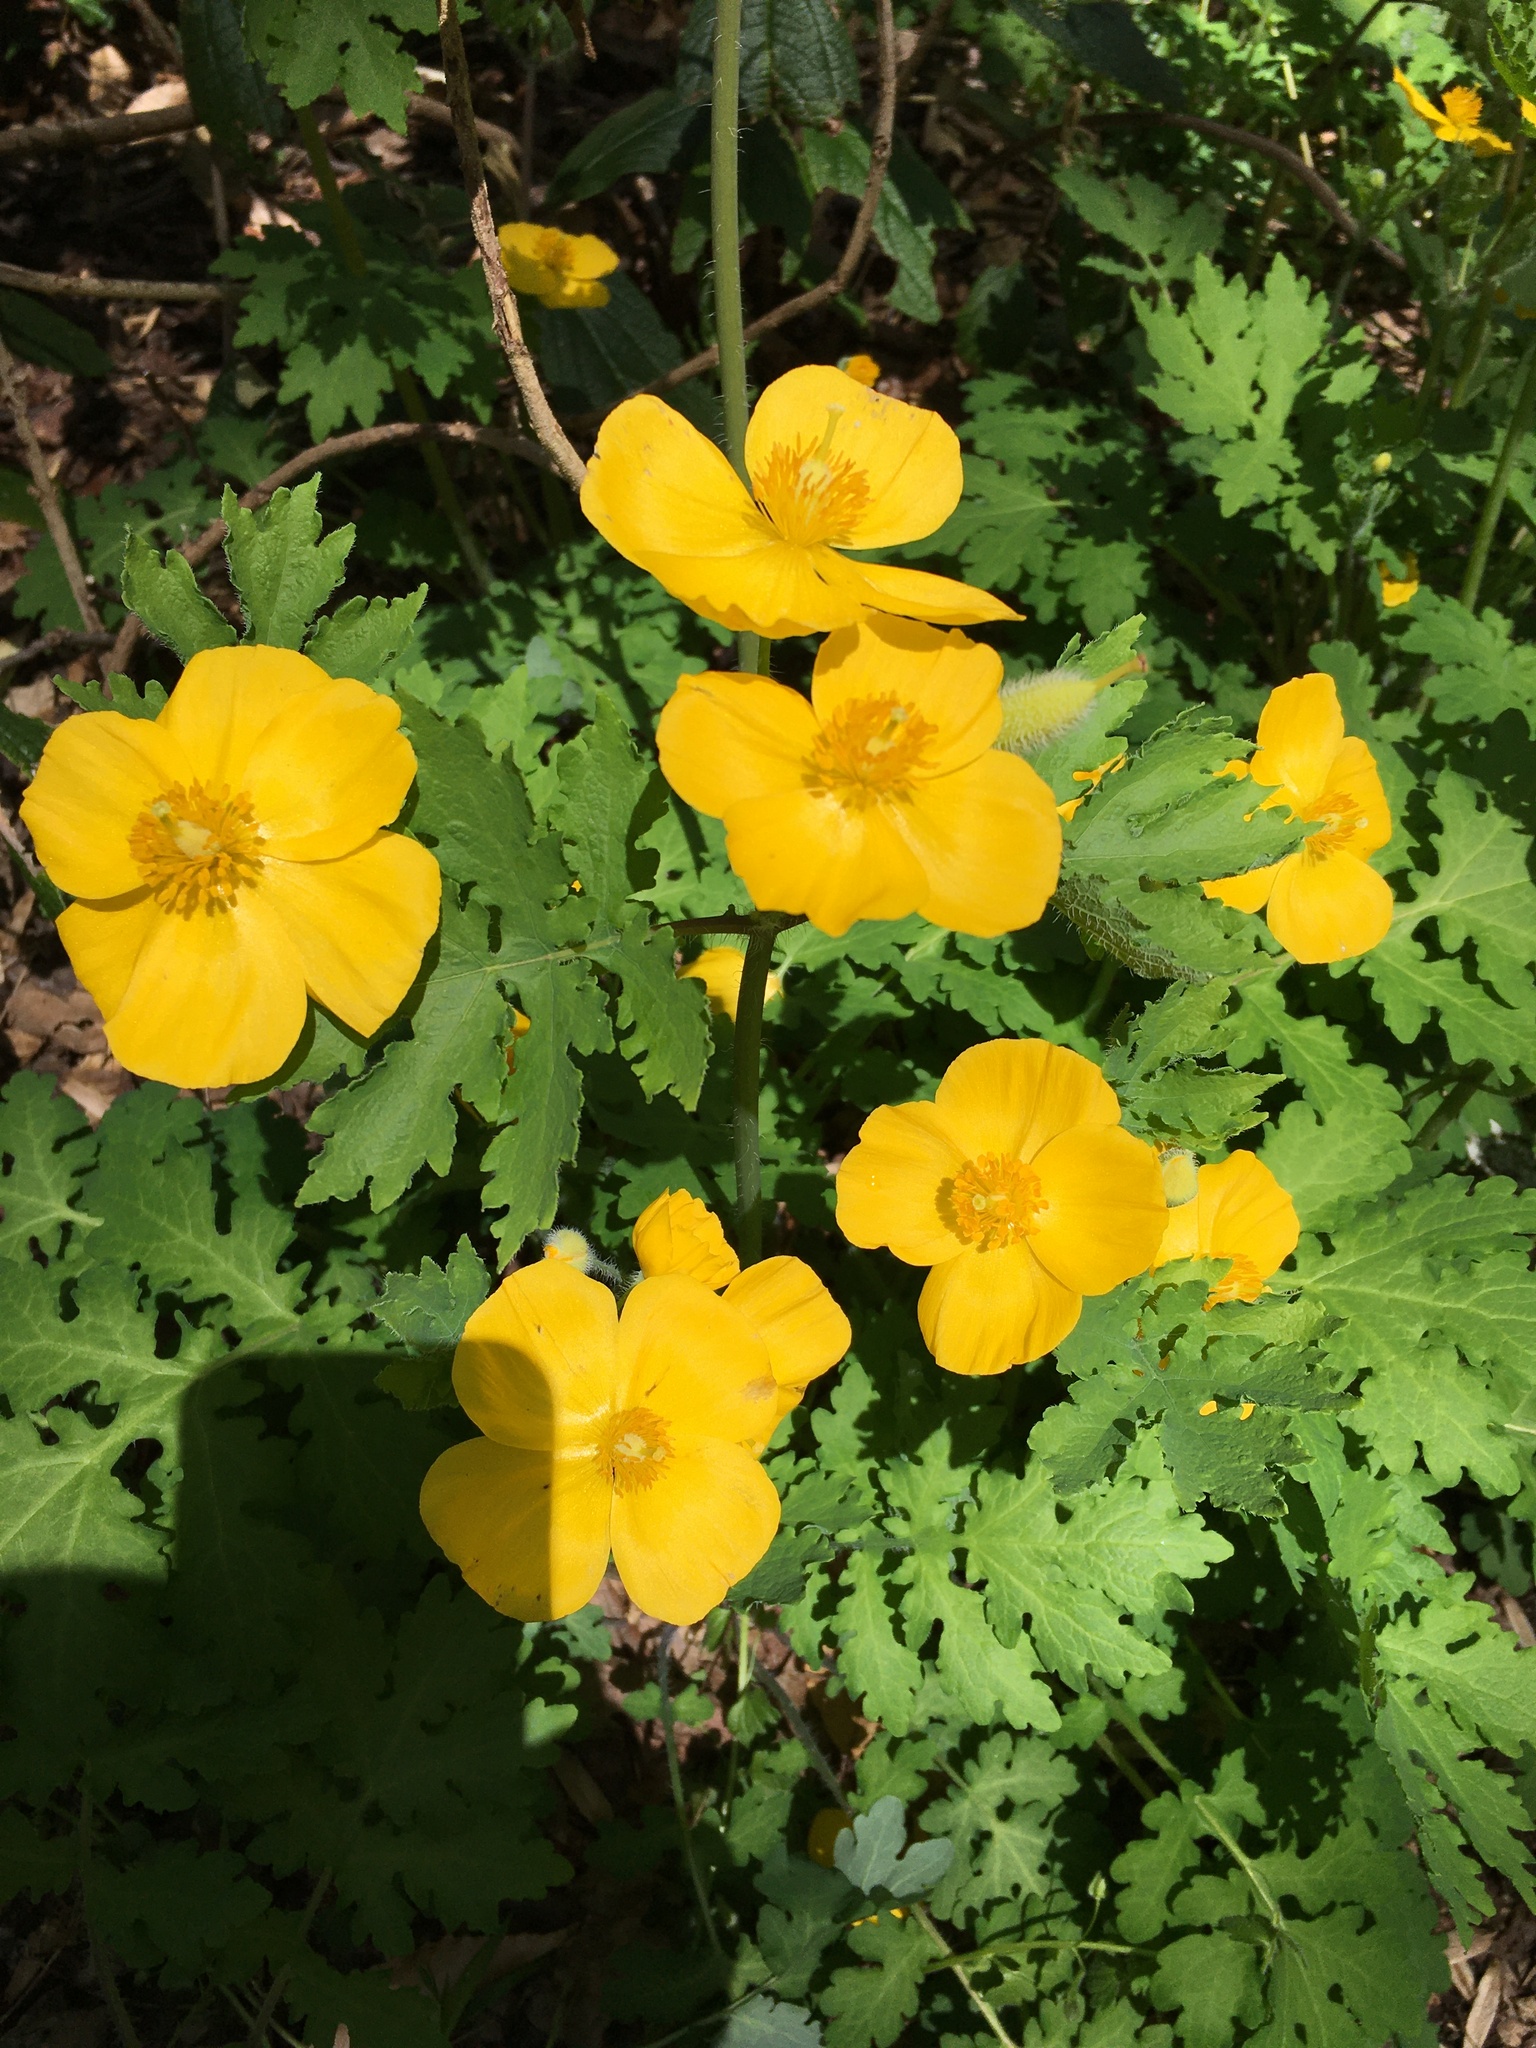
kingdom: Plantae
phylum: Tracheophyta
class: Magnoliopsida
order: Ranunculales
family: Papaveraceae
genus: Stylophorum
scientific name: Stylophorum diphyllum
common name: Celandine poppy
